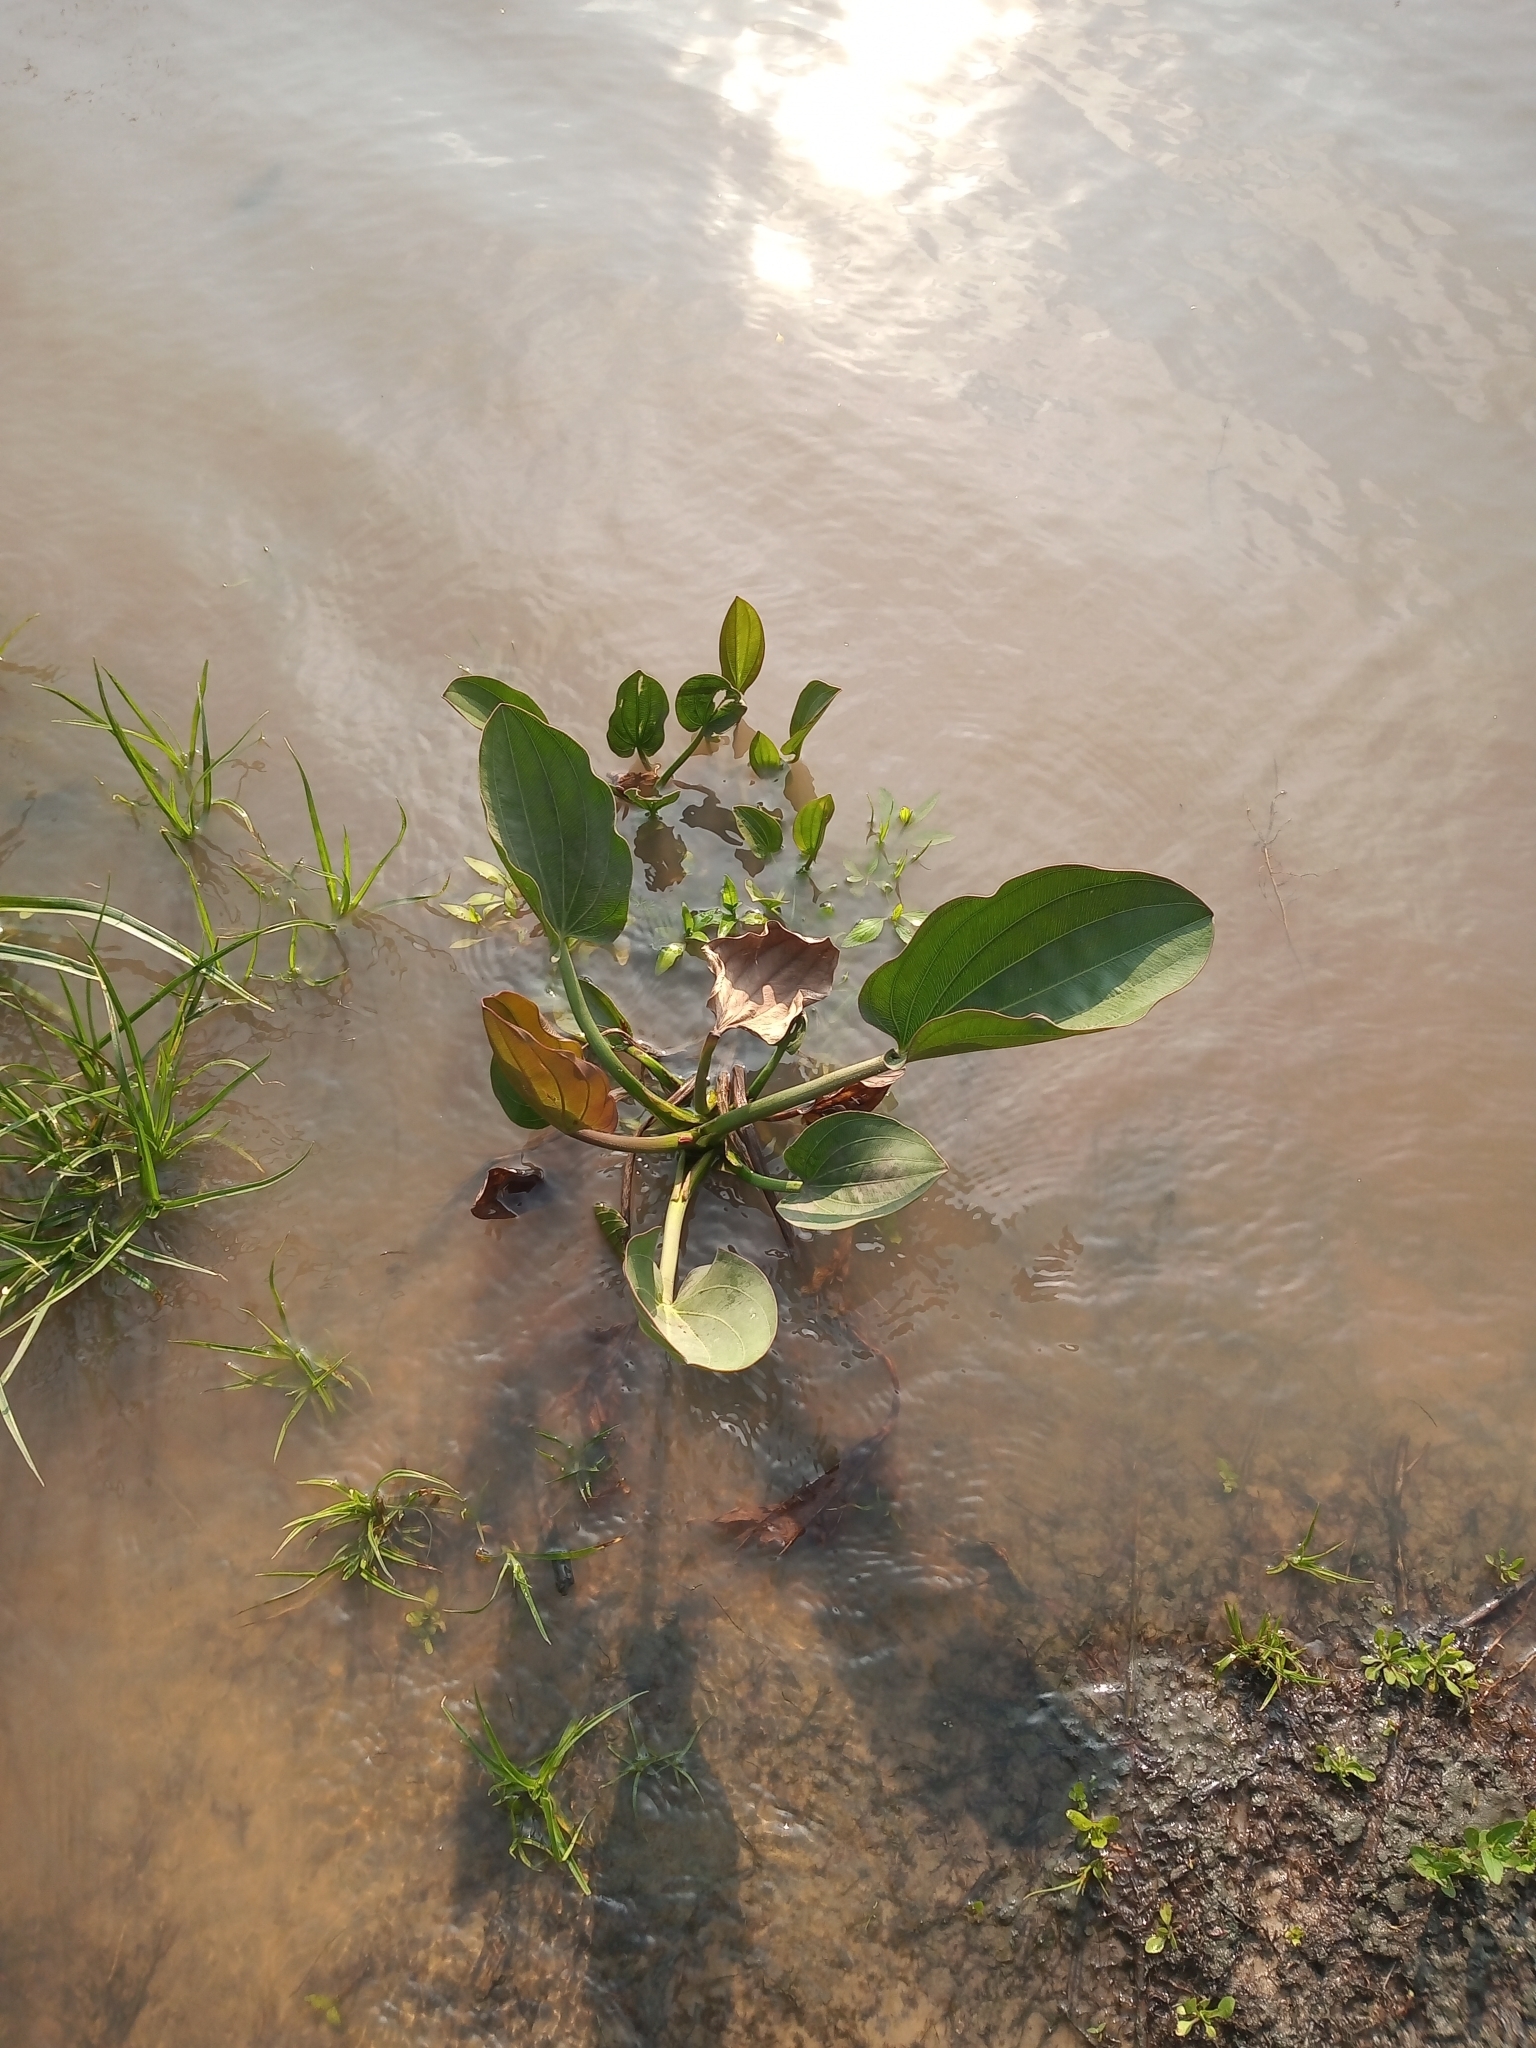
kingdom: Plantae
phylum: Tracheophyta
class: Liliopsida
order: Alismatales
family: Alismataceae
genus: Aquarius
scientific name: Aquarius cordifolius
